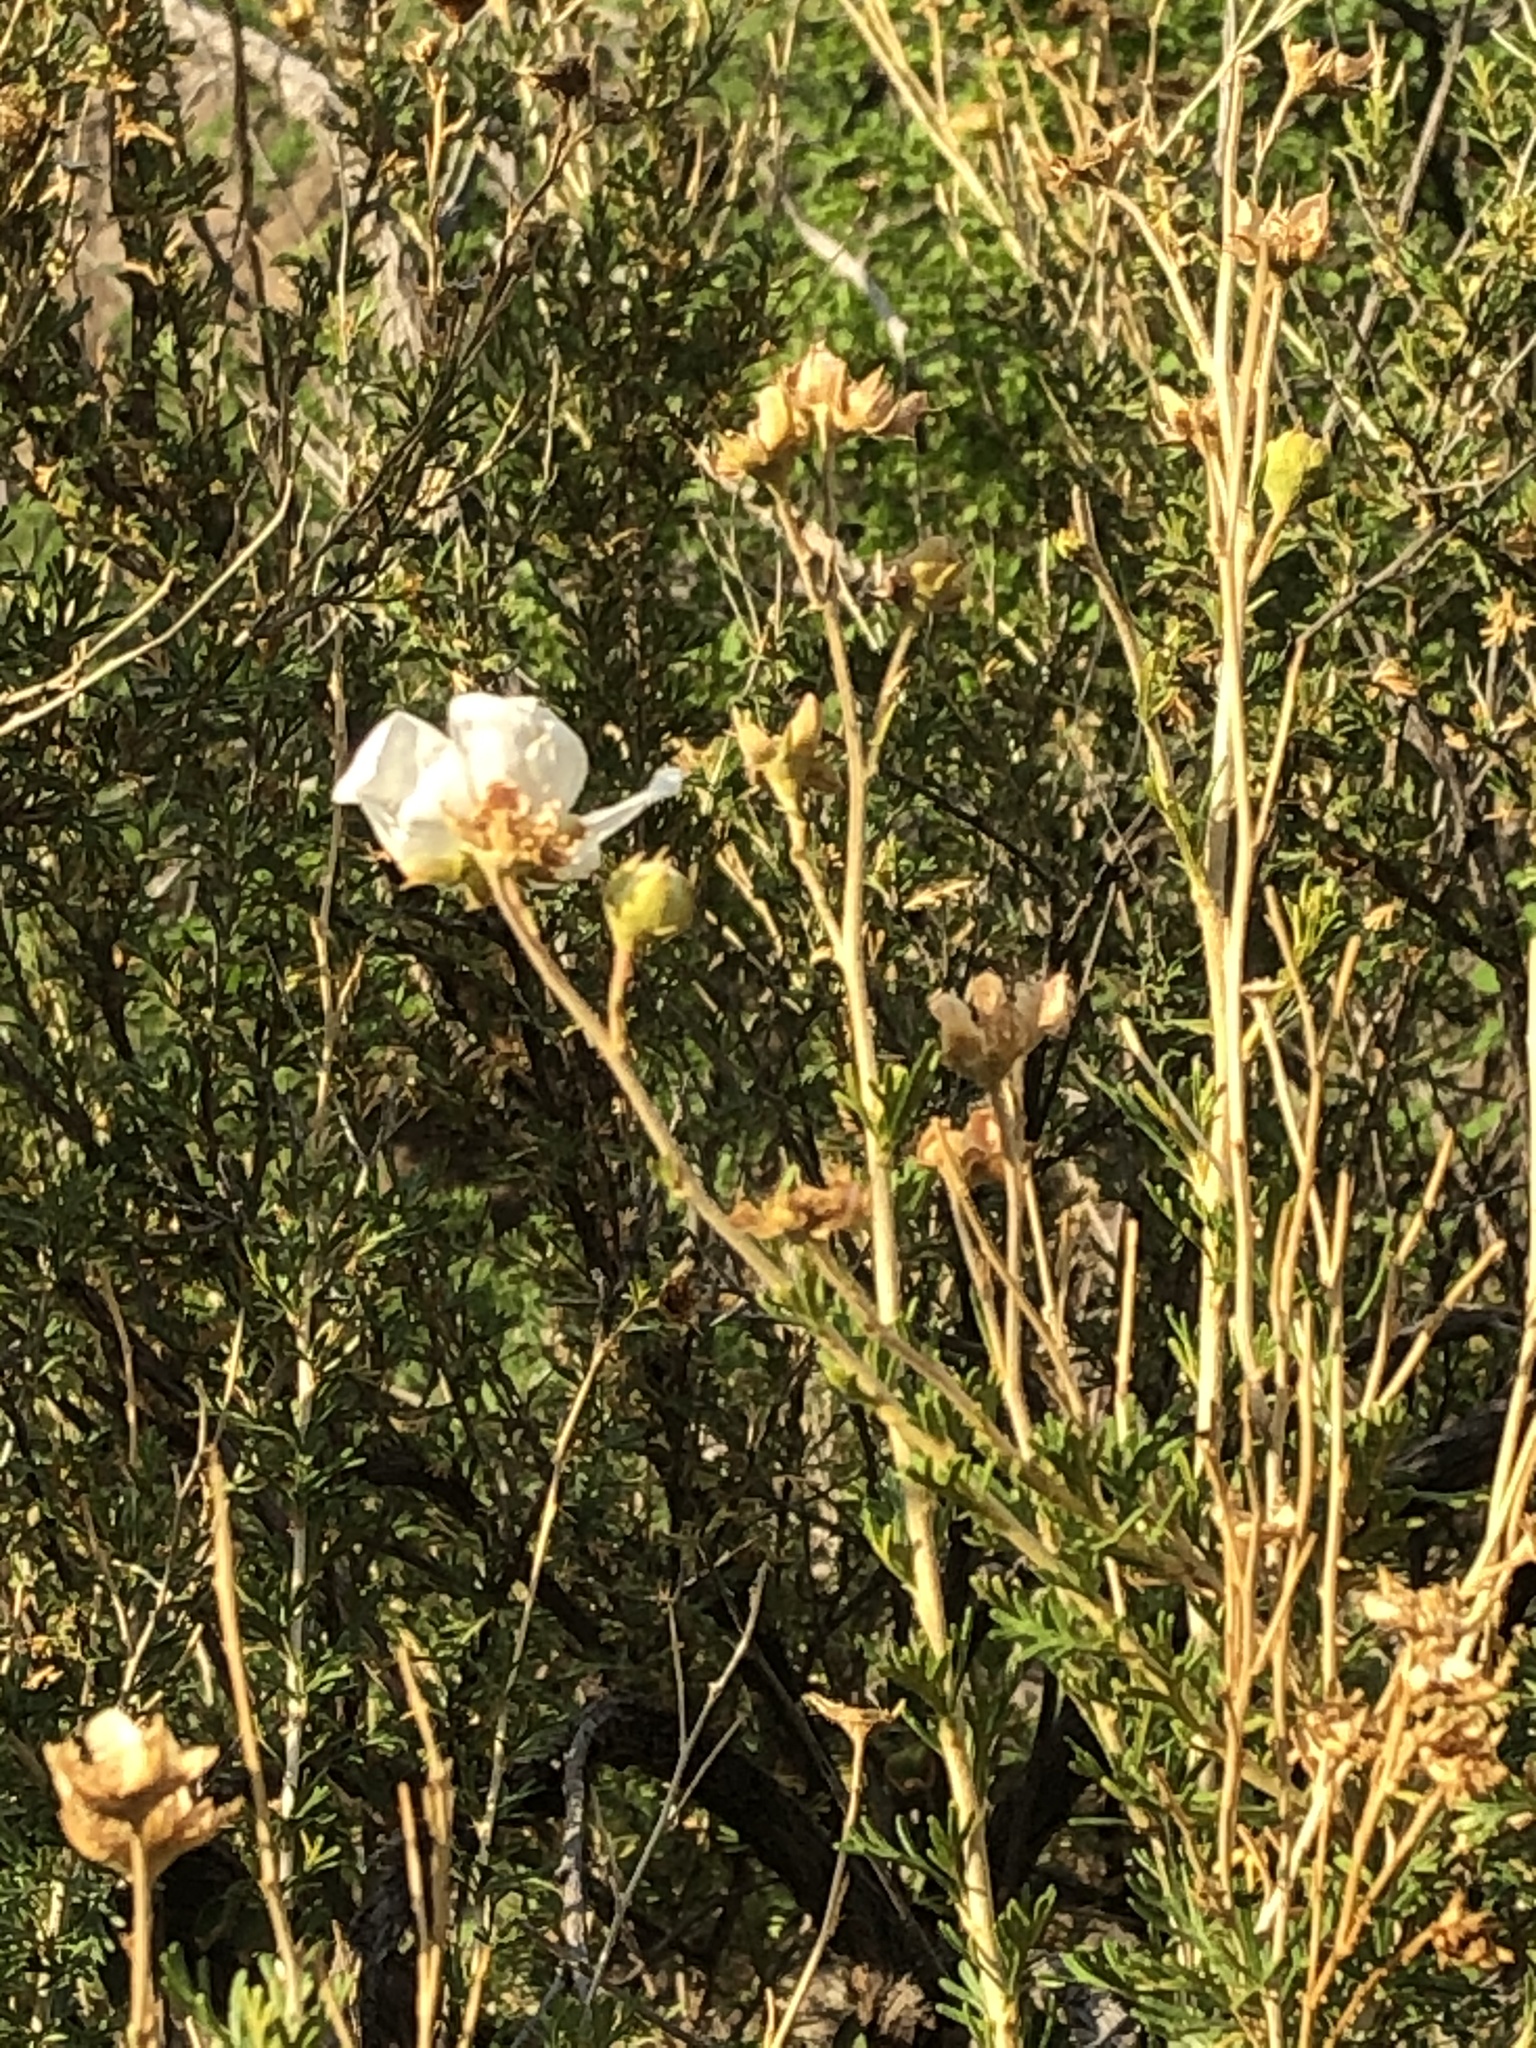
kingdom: Plantae
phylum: Tracheophyta
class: Magnoliopsida
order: Rosales
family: Rosaceae
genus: Fallugia
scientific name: Fallugia paradoxa
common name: Apache-plume
